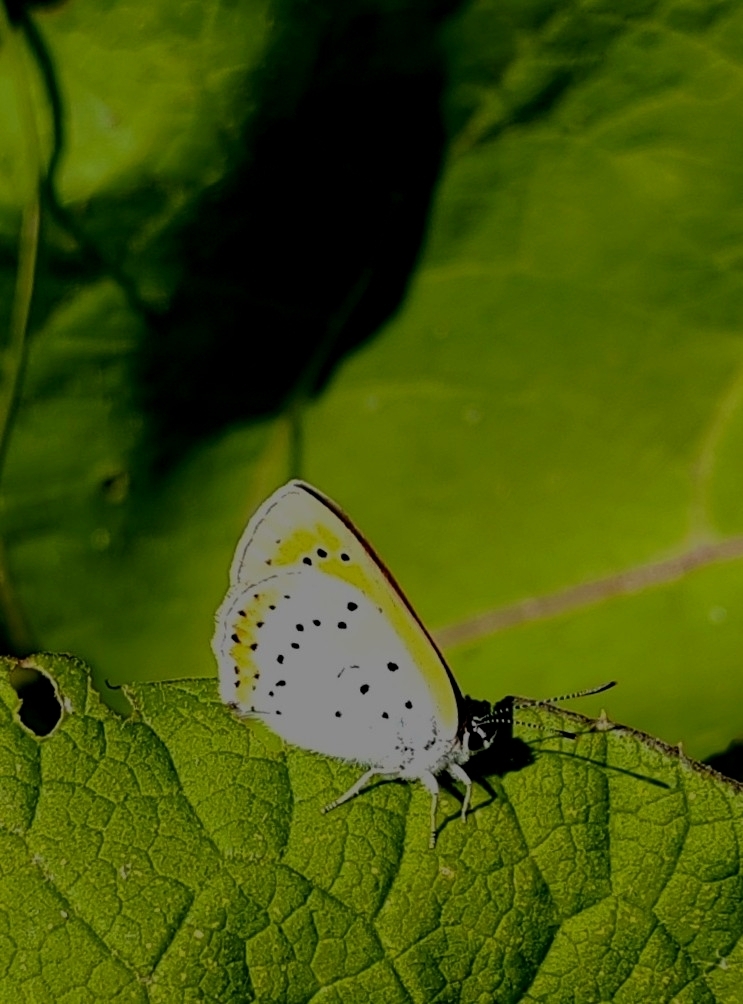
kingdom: Animalia
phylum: Arthropoda
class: Insecta
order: Lepidoptera
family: Lycaenidae
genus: Lycaena
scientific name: Lycaena dispar
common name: Large copper
